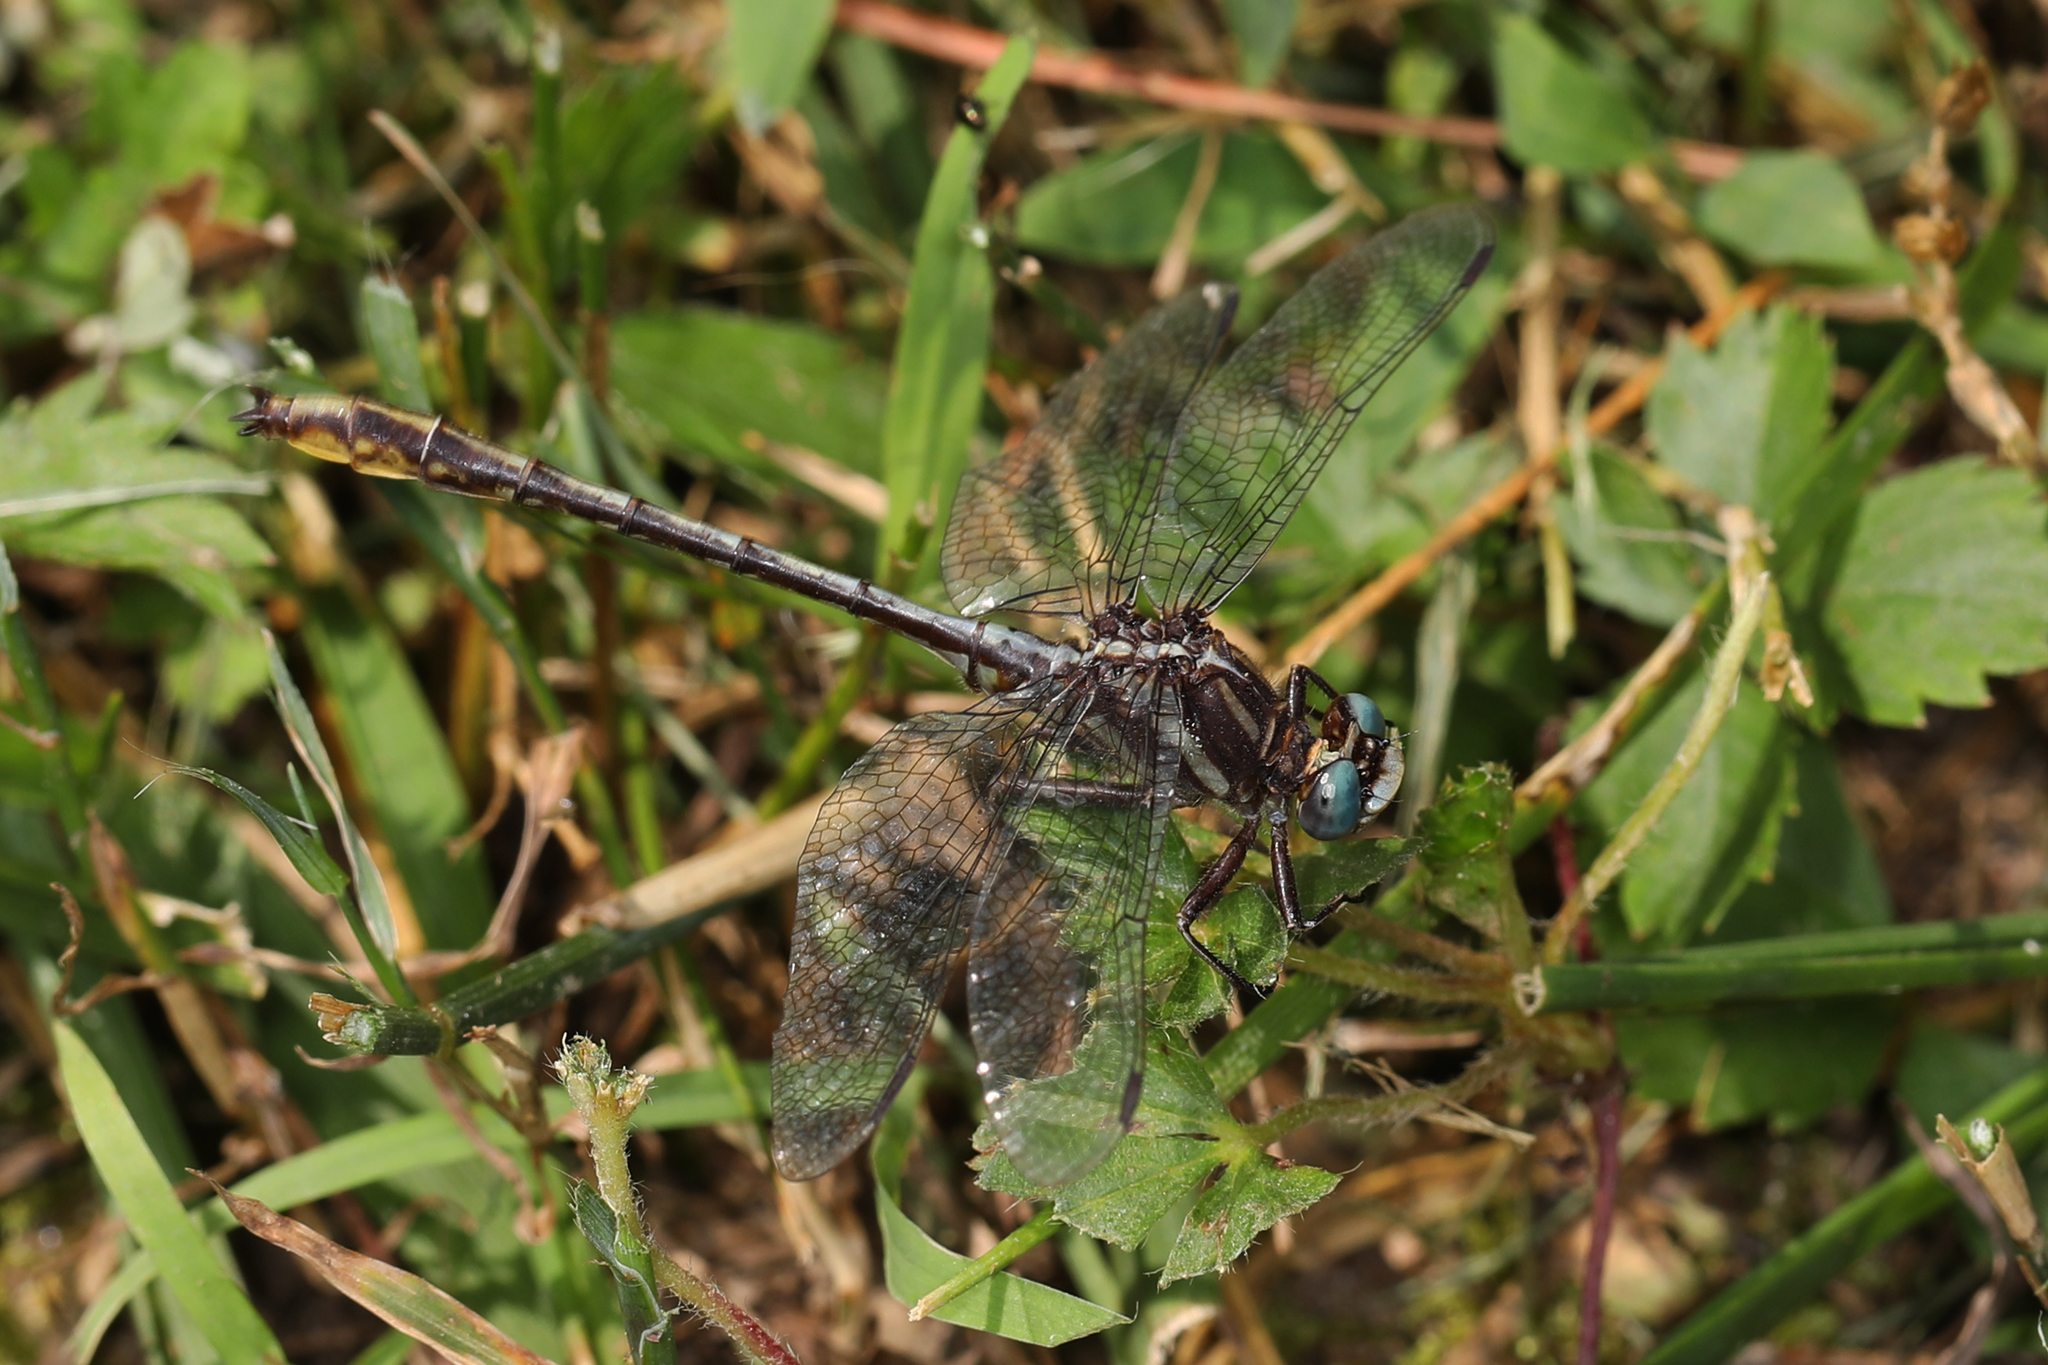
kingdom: Animalia
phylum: Arthropoda
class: Insecta
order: Odonata
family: Gomphidae
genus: Phanogomphus
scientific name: Phanogomphus exilis
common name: Lancet clubtail
